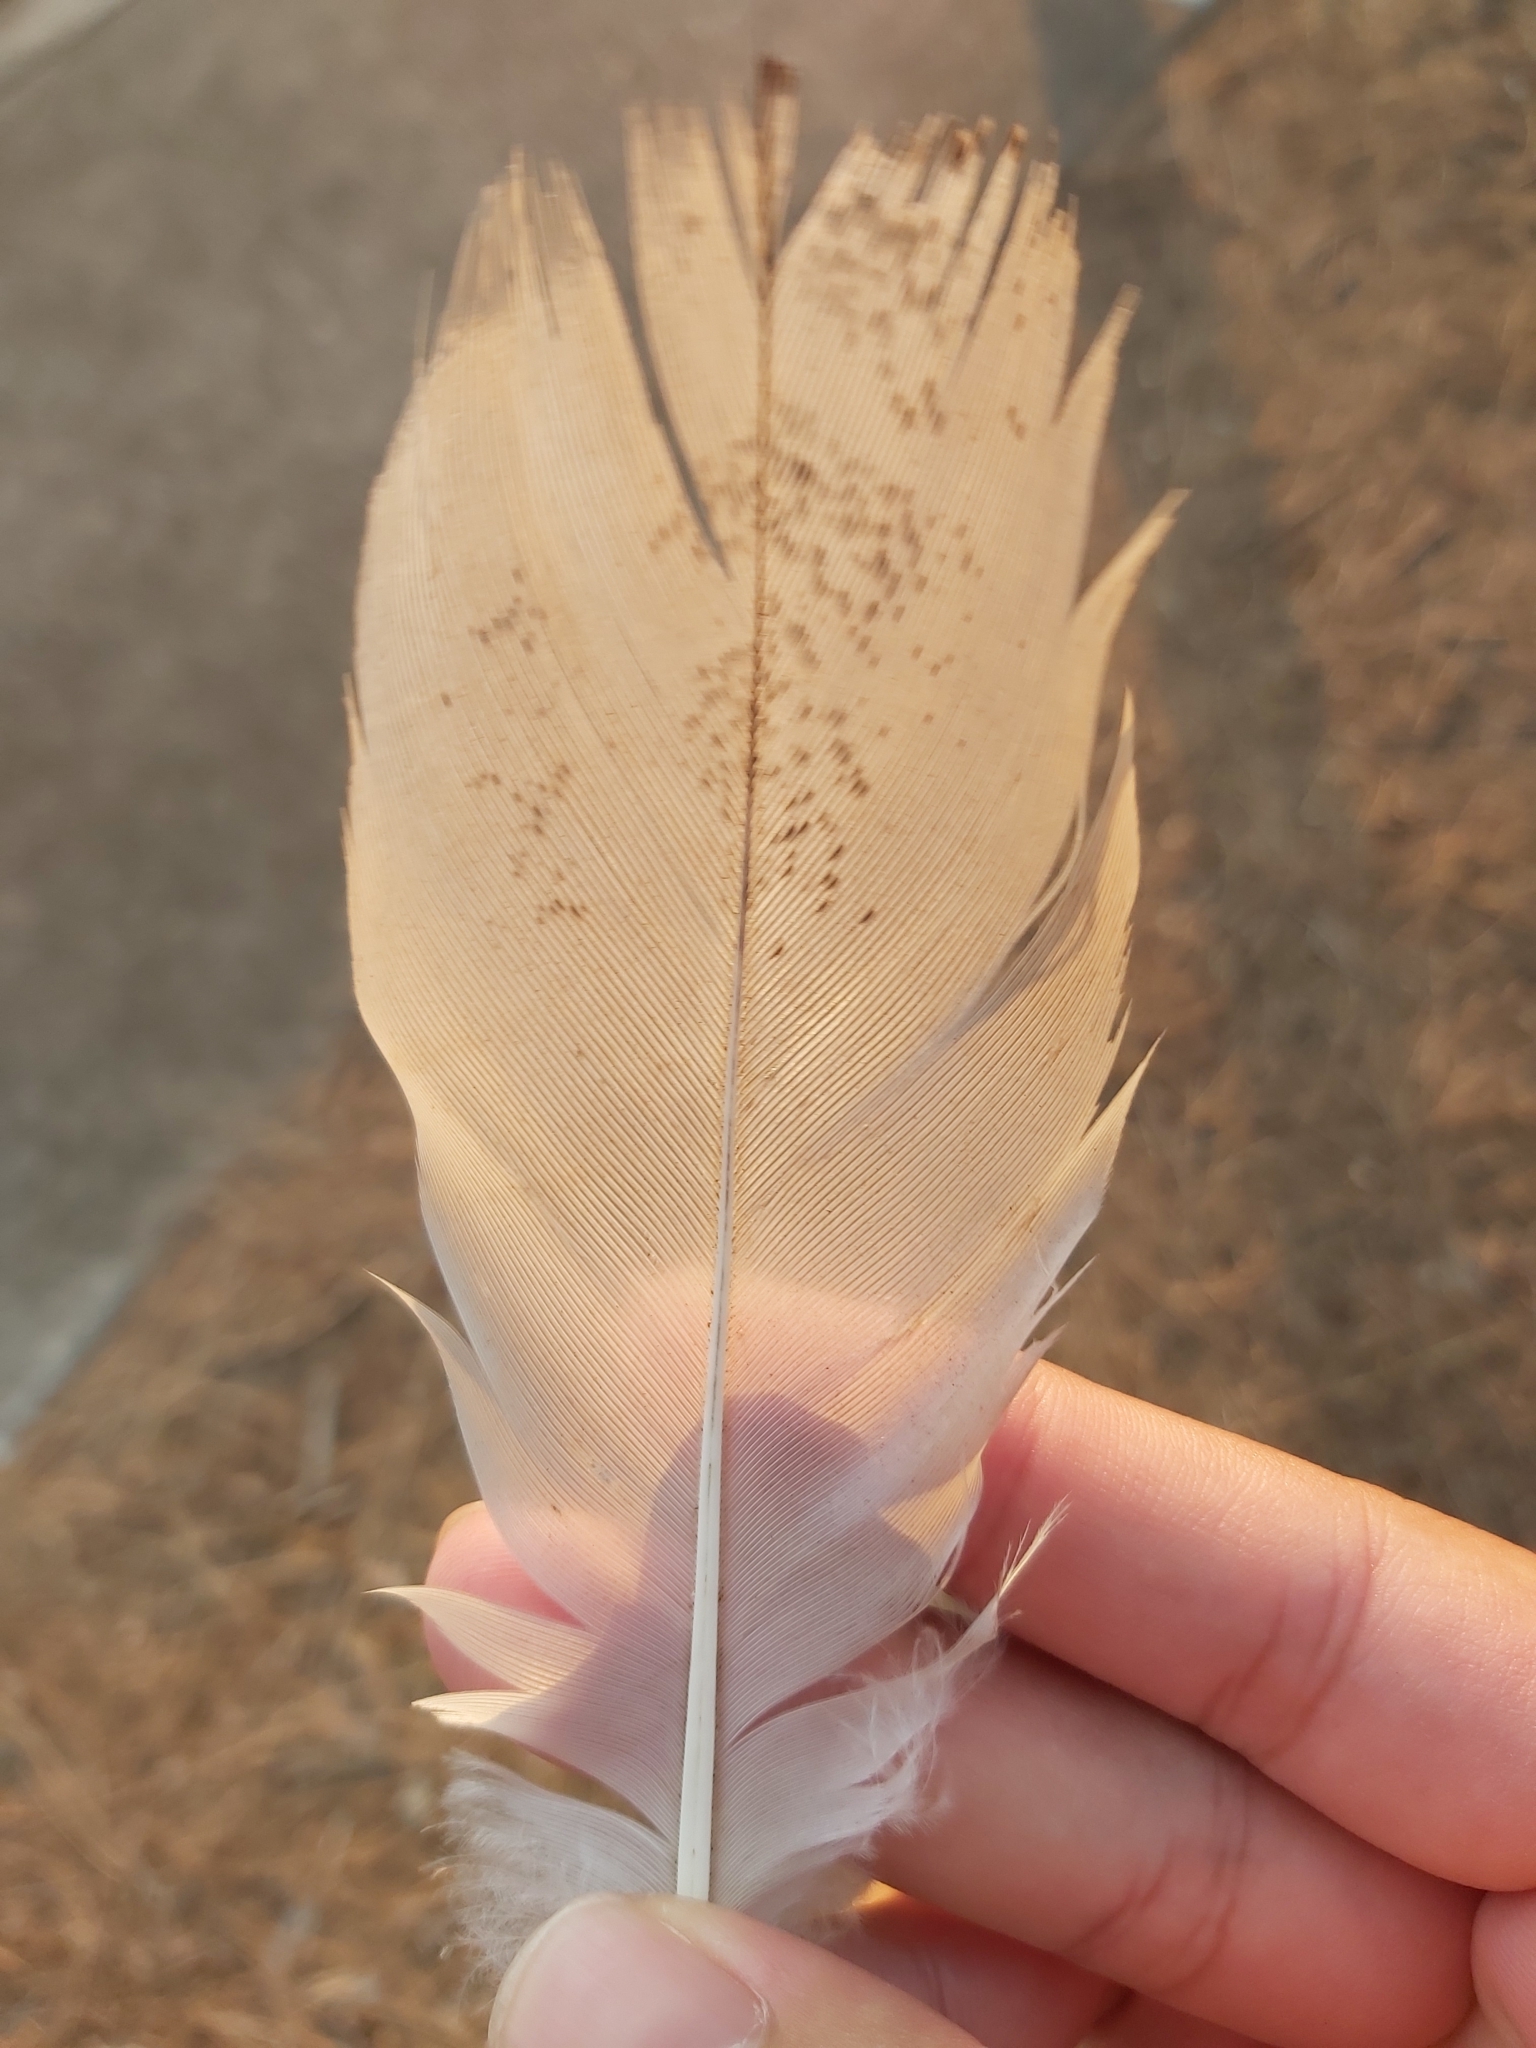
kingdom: Animalia
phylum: Chordata
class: Aves
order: Pelecaniformes
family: Threskiornithidae
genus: Threskiornis
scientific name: Threskiornis molucca
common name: Australian white ibis
